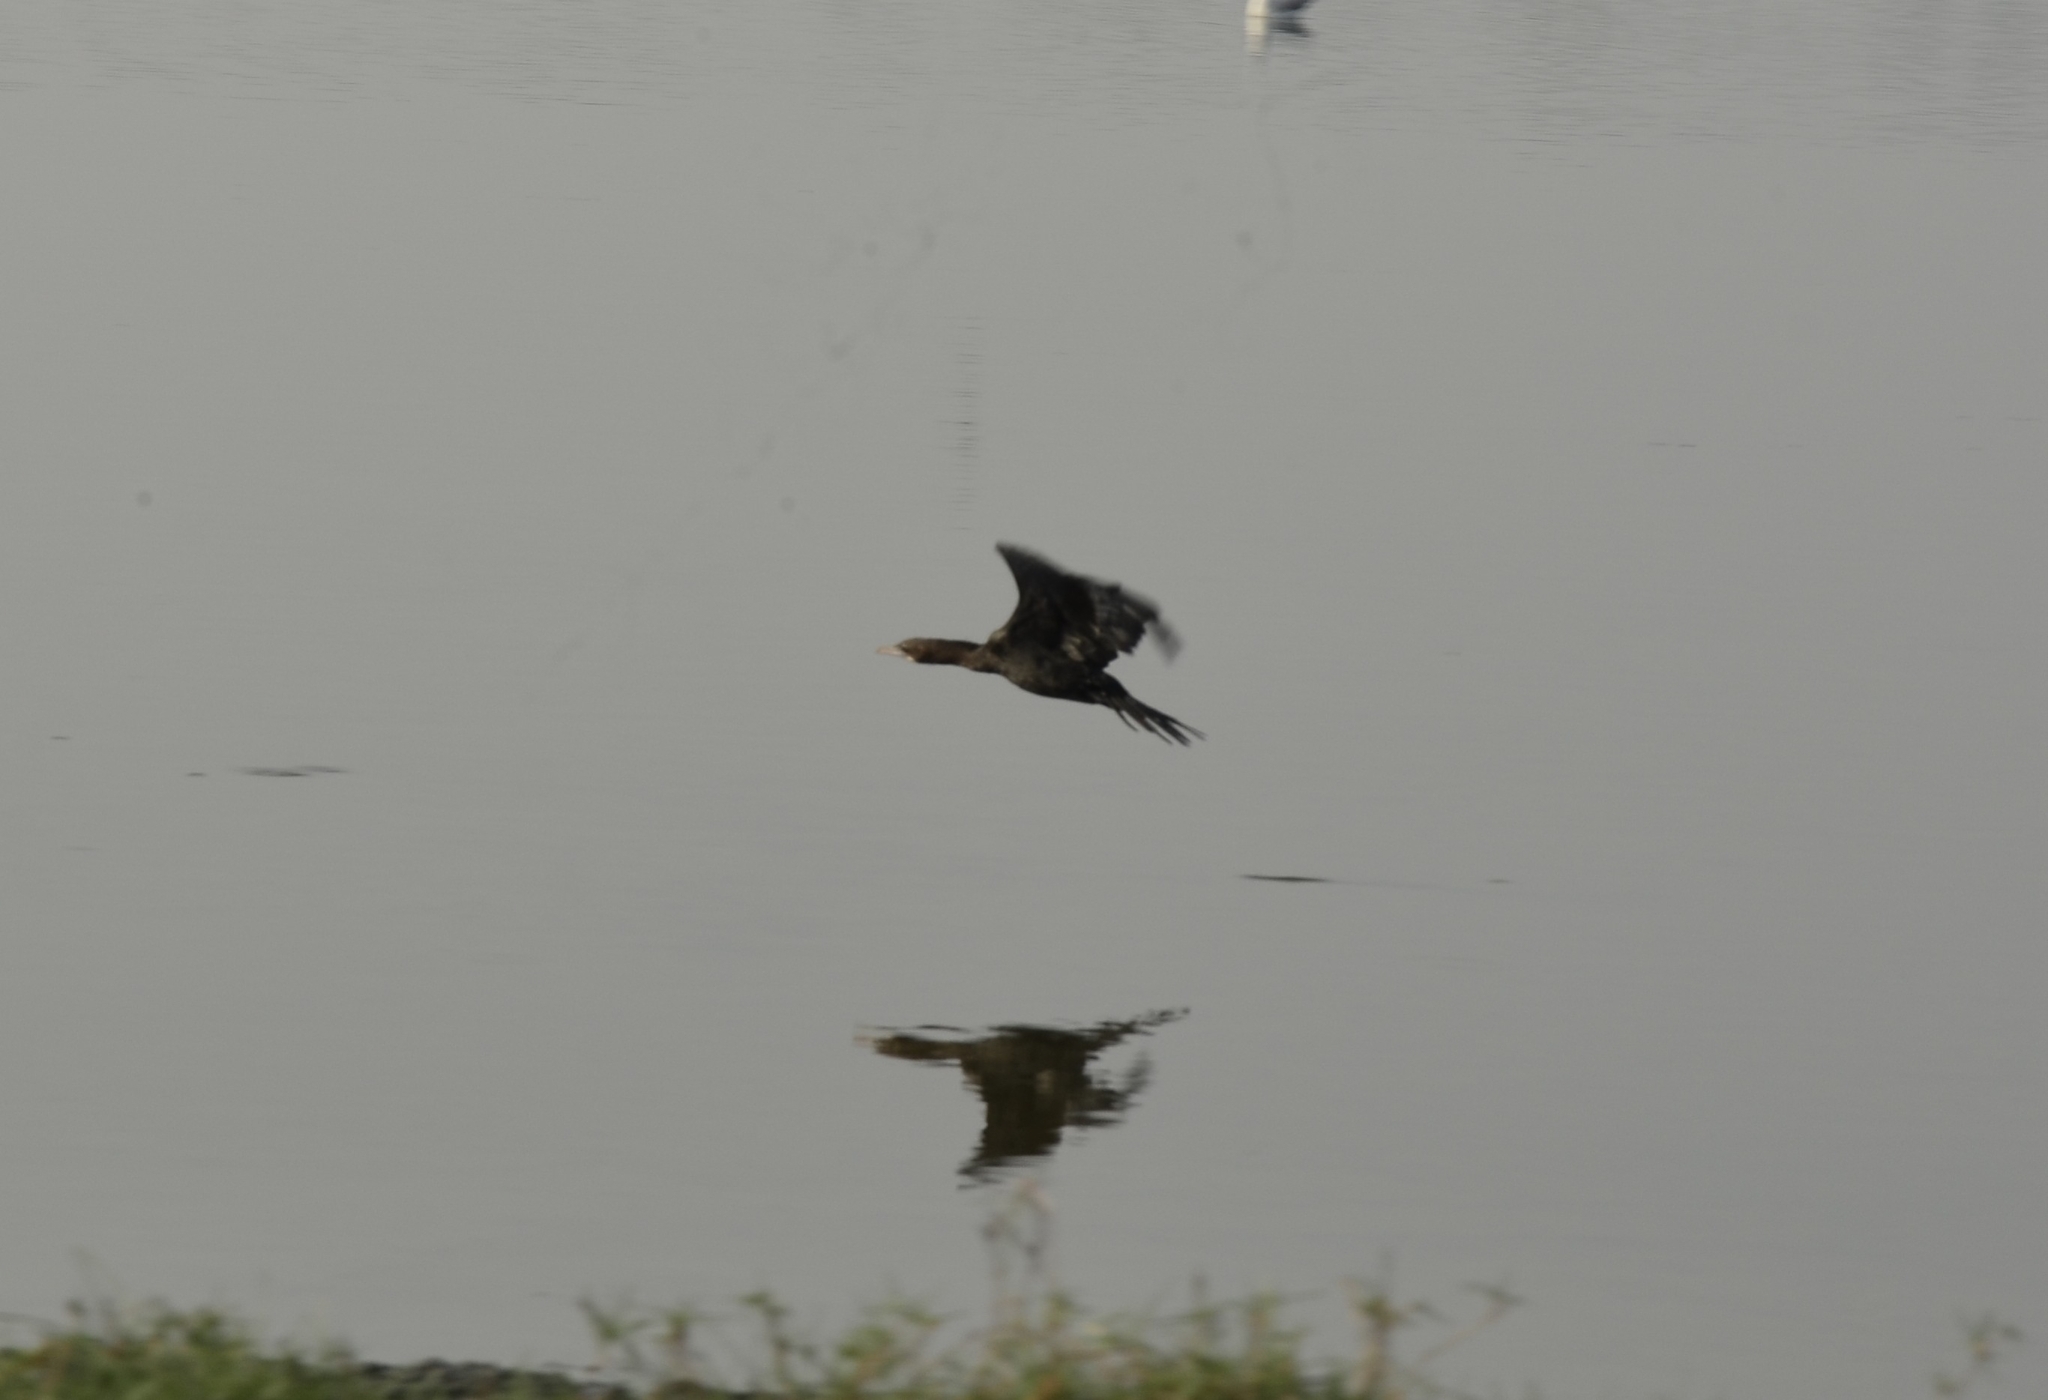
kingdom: Animalia
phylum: Chordata
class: Aves
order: Suliformes
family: Phalacrocoracidae
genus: Microcarbo
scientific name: Microcarbo niger
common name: Little cormorant
